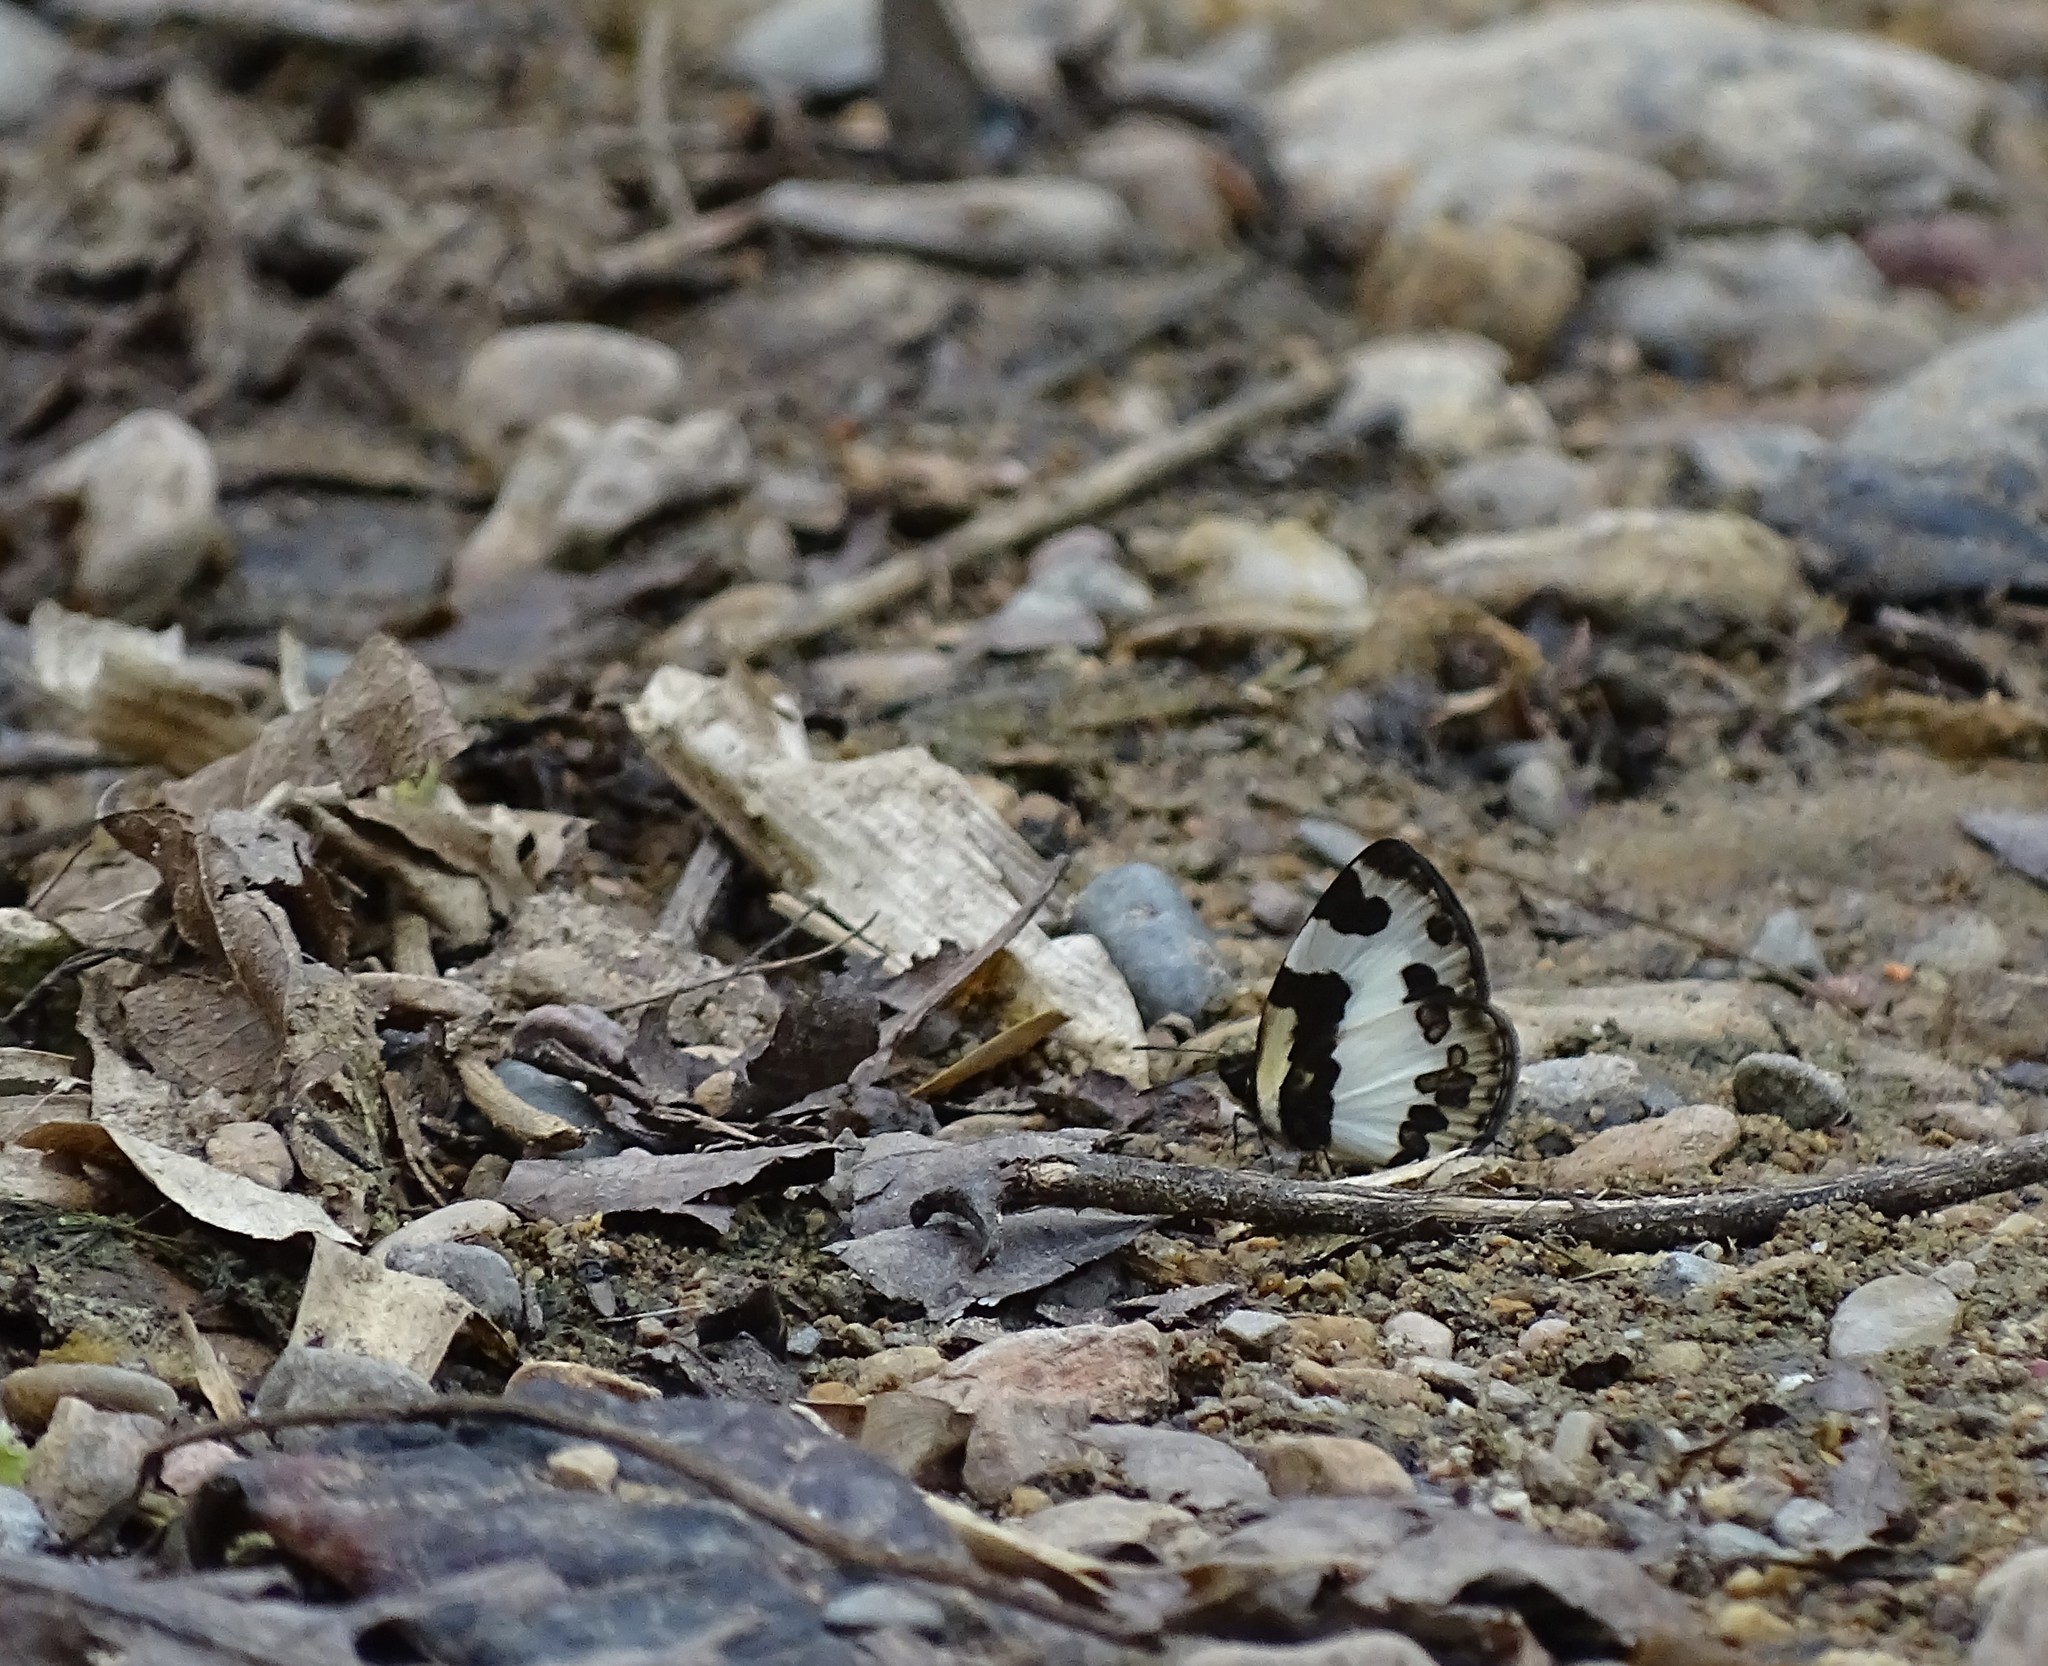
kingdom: Animalia
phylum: Arthropoda
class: Insecta
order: Lepidoptera
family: Lycaenidae
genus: Caleta
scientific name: Caleta elna
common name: Elbowed pierrot
